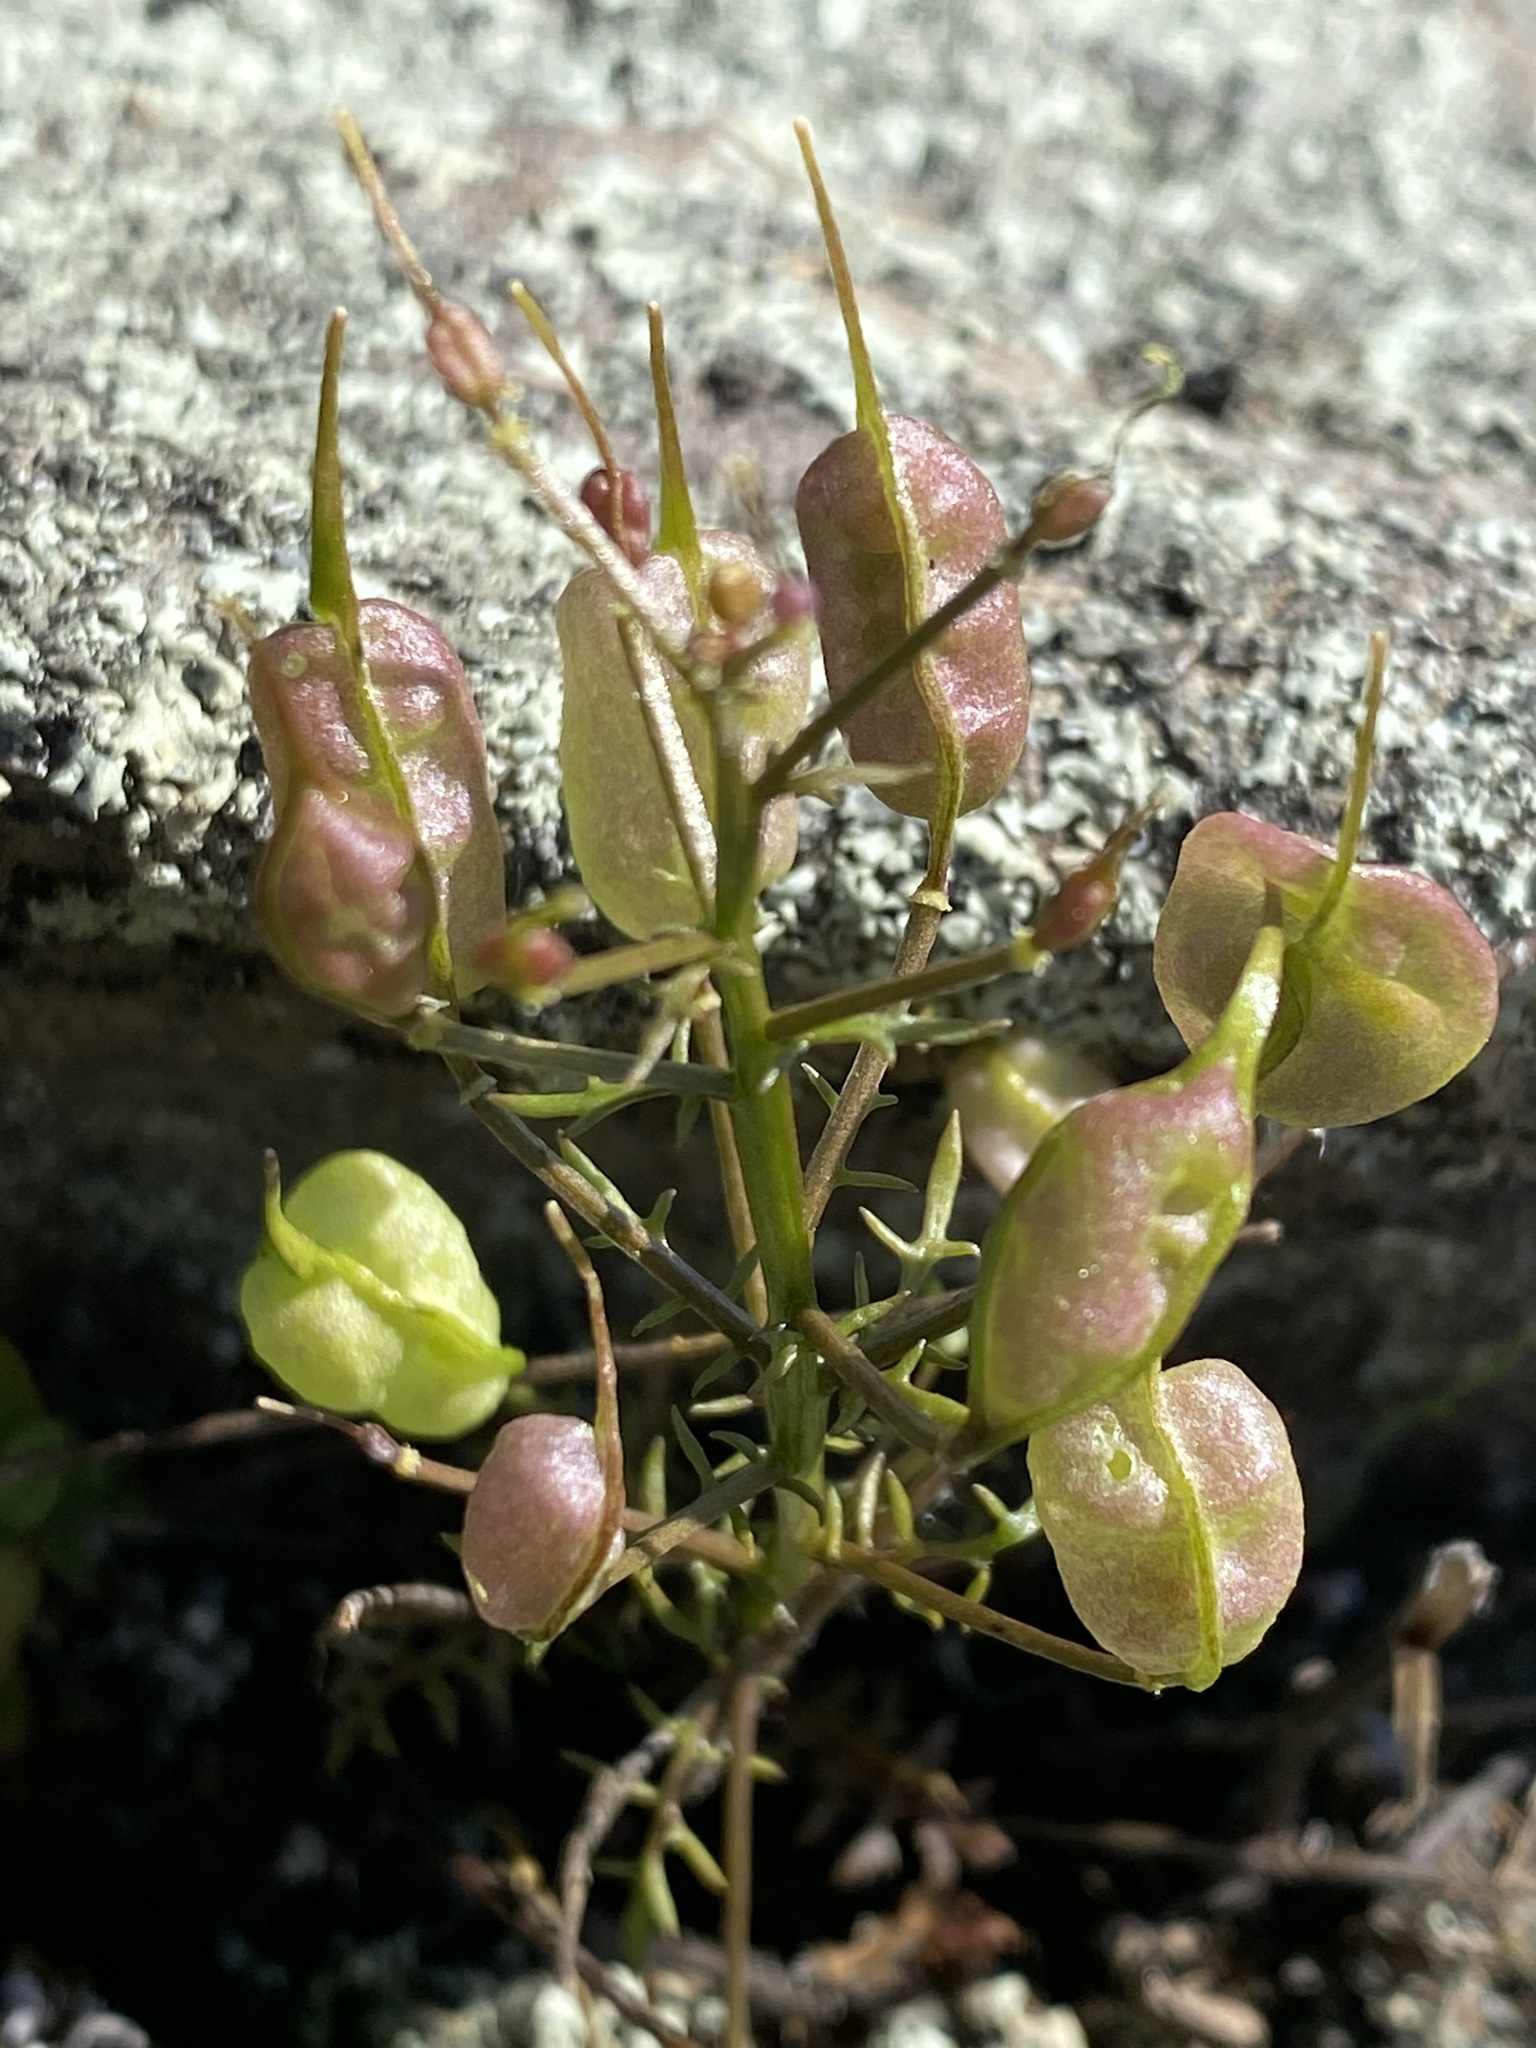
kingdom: Plantae
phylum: Tracheophyta
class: Magnoliopsida
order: Brassicales
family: Brassicaceae
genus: Selenia
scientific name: Selenia aurea
